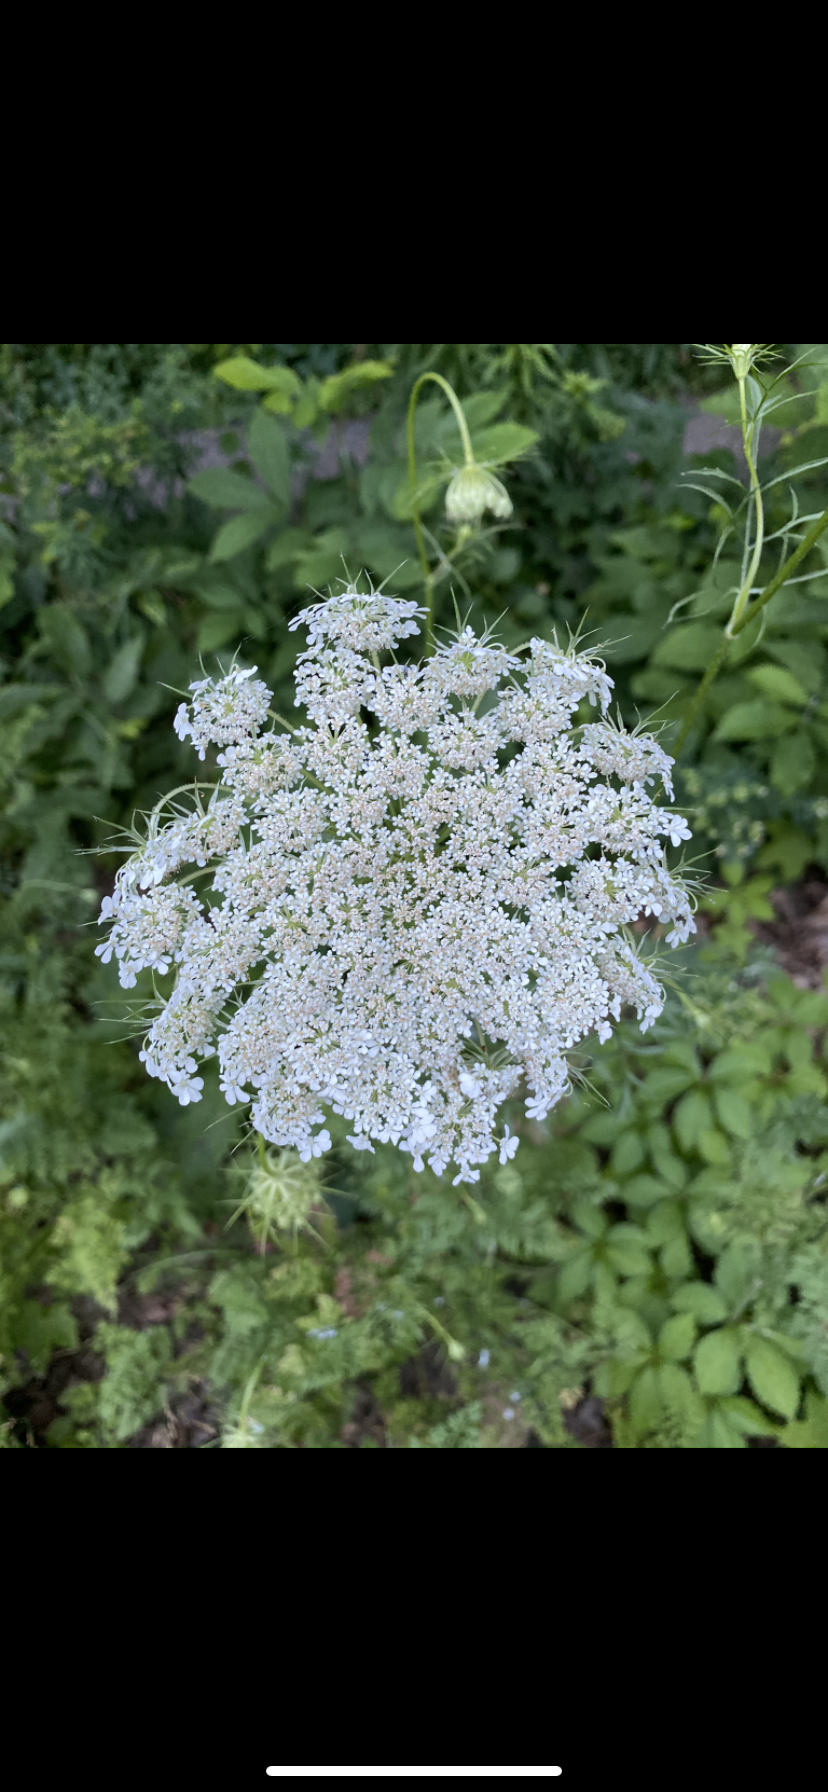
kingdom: Plantae
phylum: Tracheophyta
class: Magnoliopsida
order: Apiales
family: Apiaceae
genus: Daucus
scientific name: Daucus carota
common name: Wild carrot
